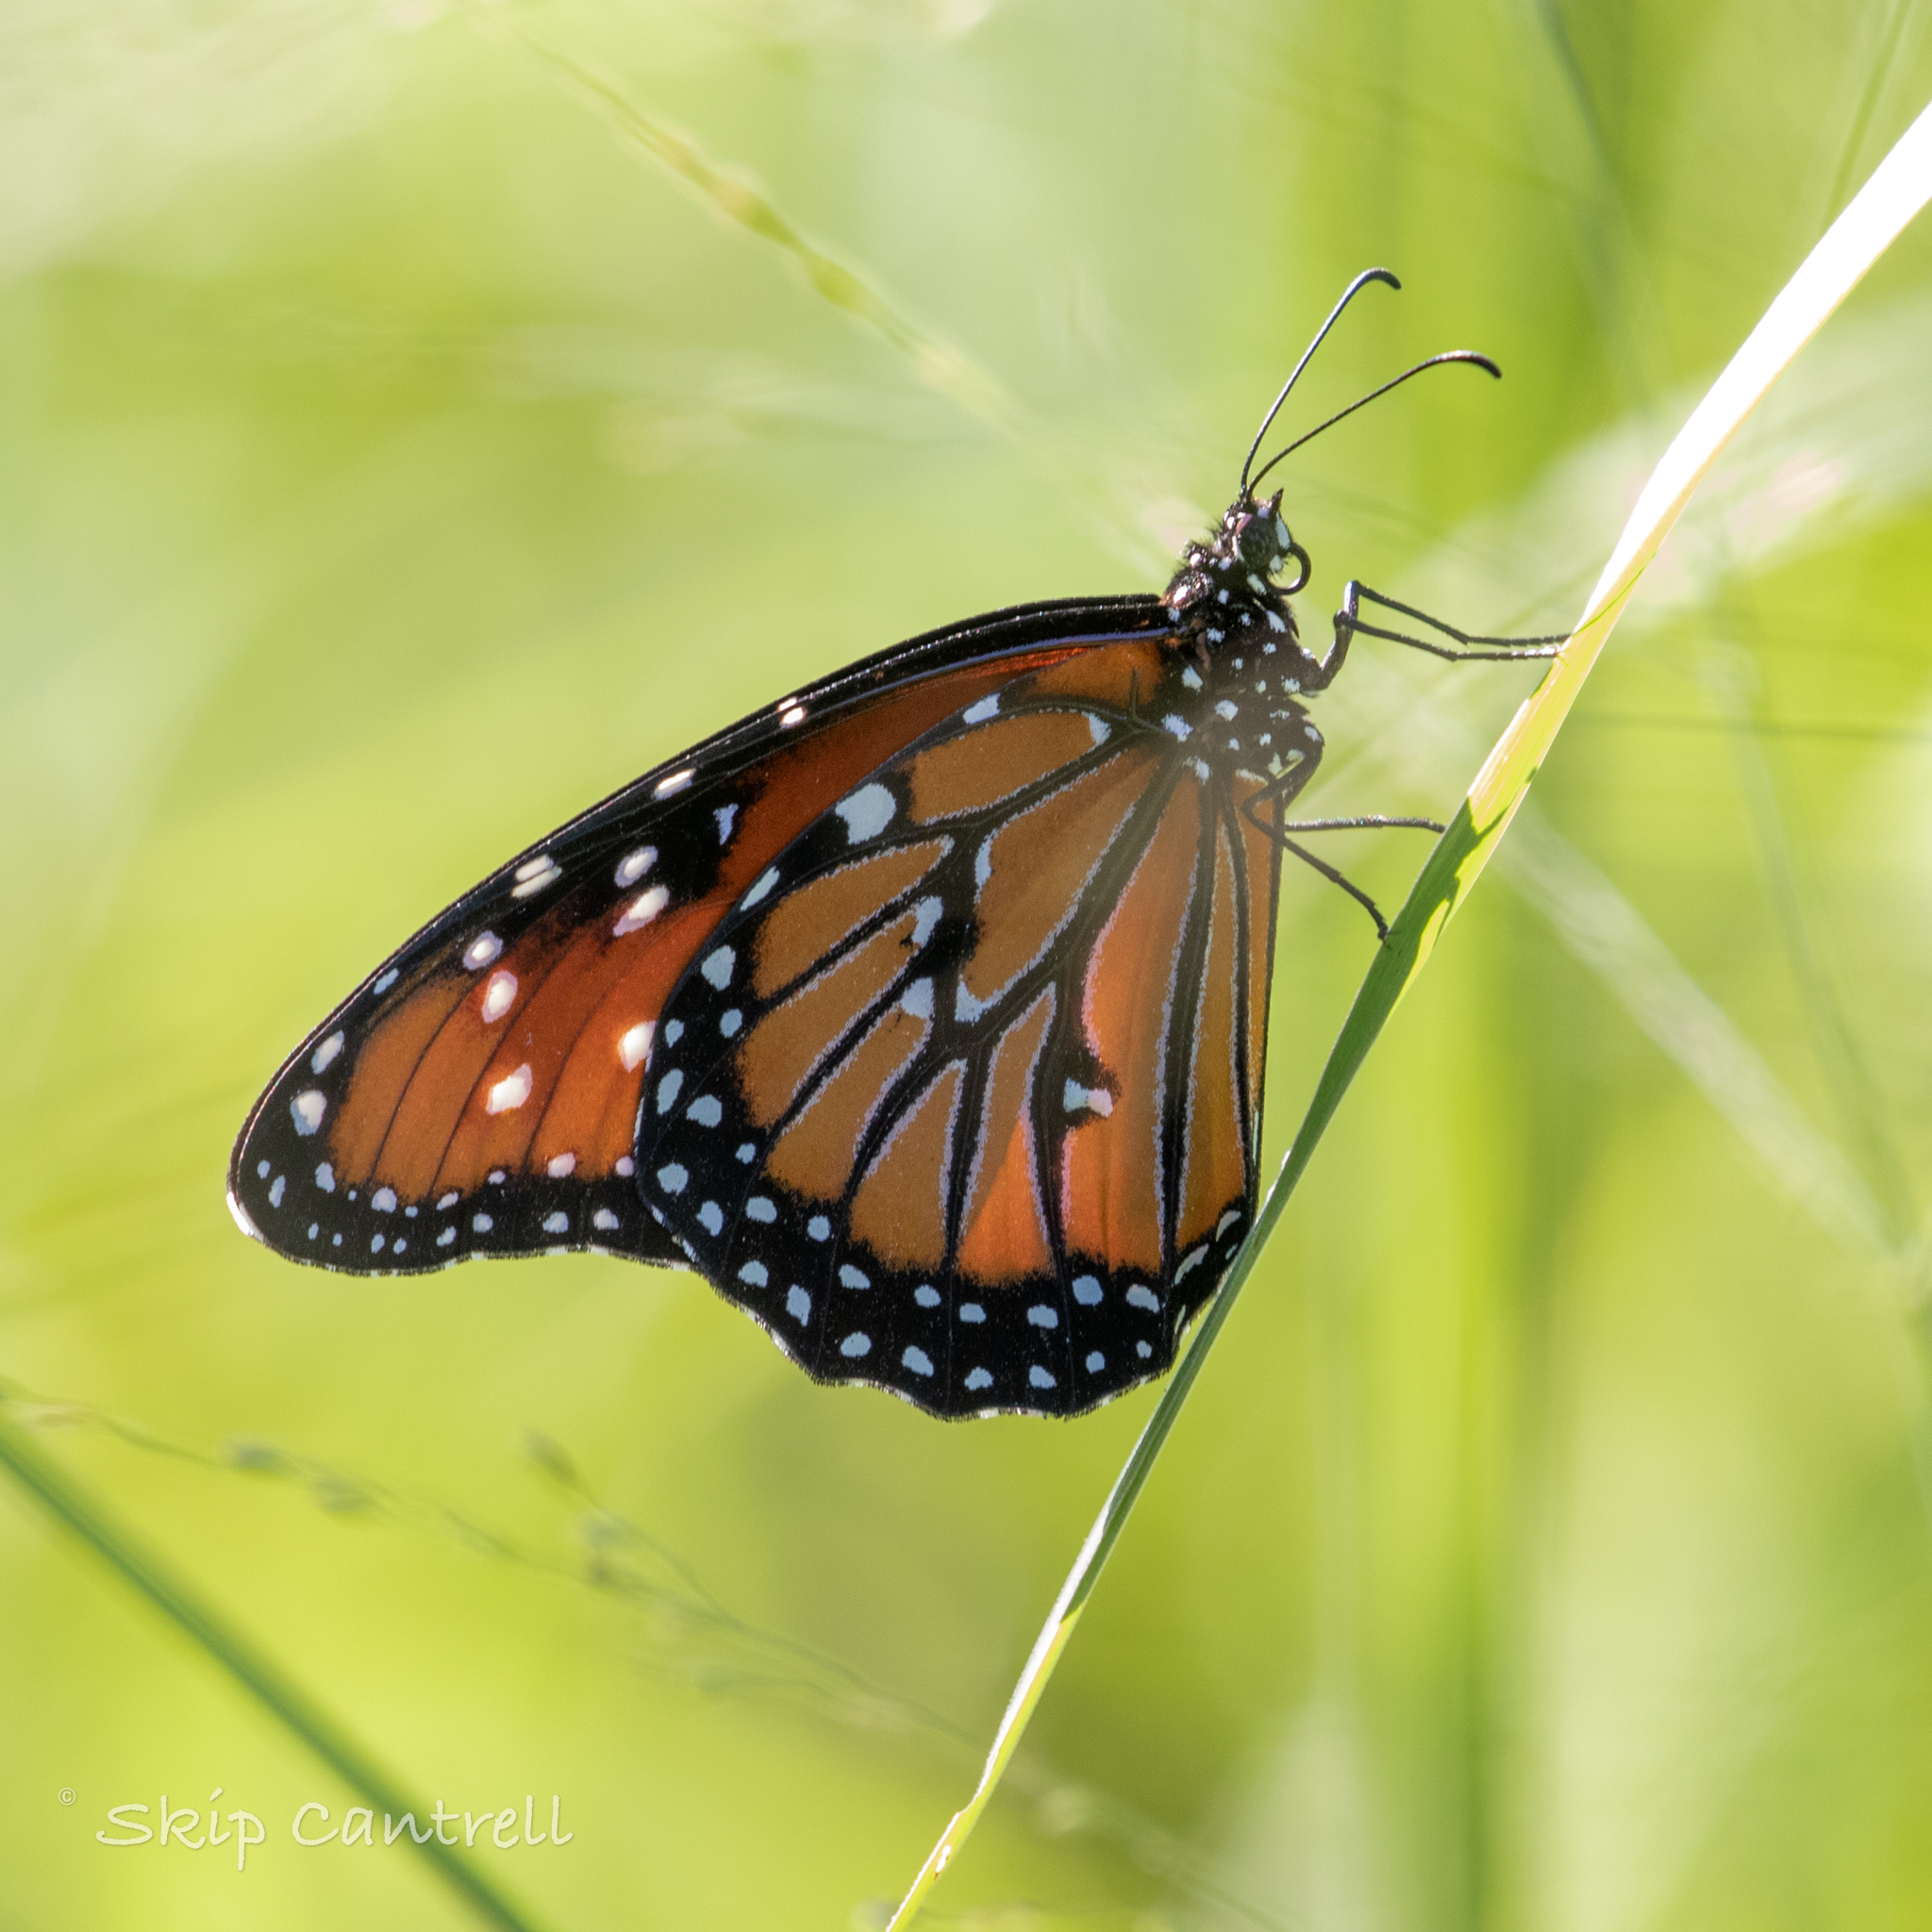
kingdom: Animalia
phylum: Arthropoda
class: Insecta
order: Lepidoptera
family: Nymphalidae
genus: Danaus
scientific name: Danaus gilippus
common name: Queen
